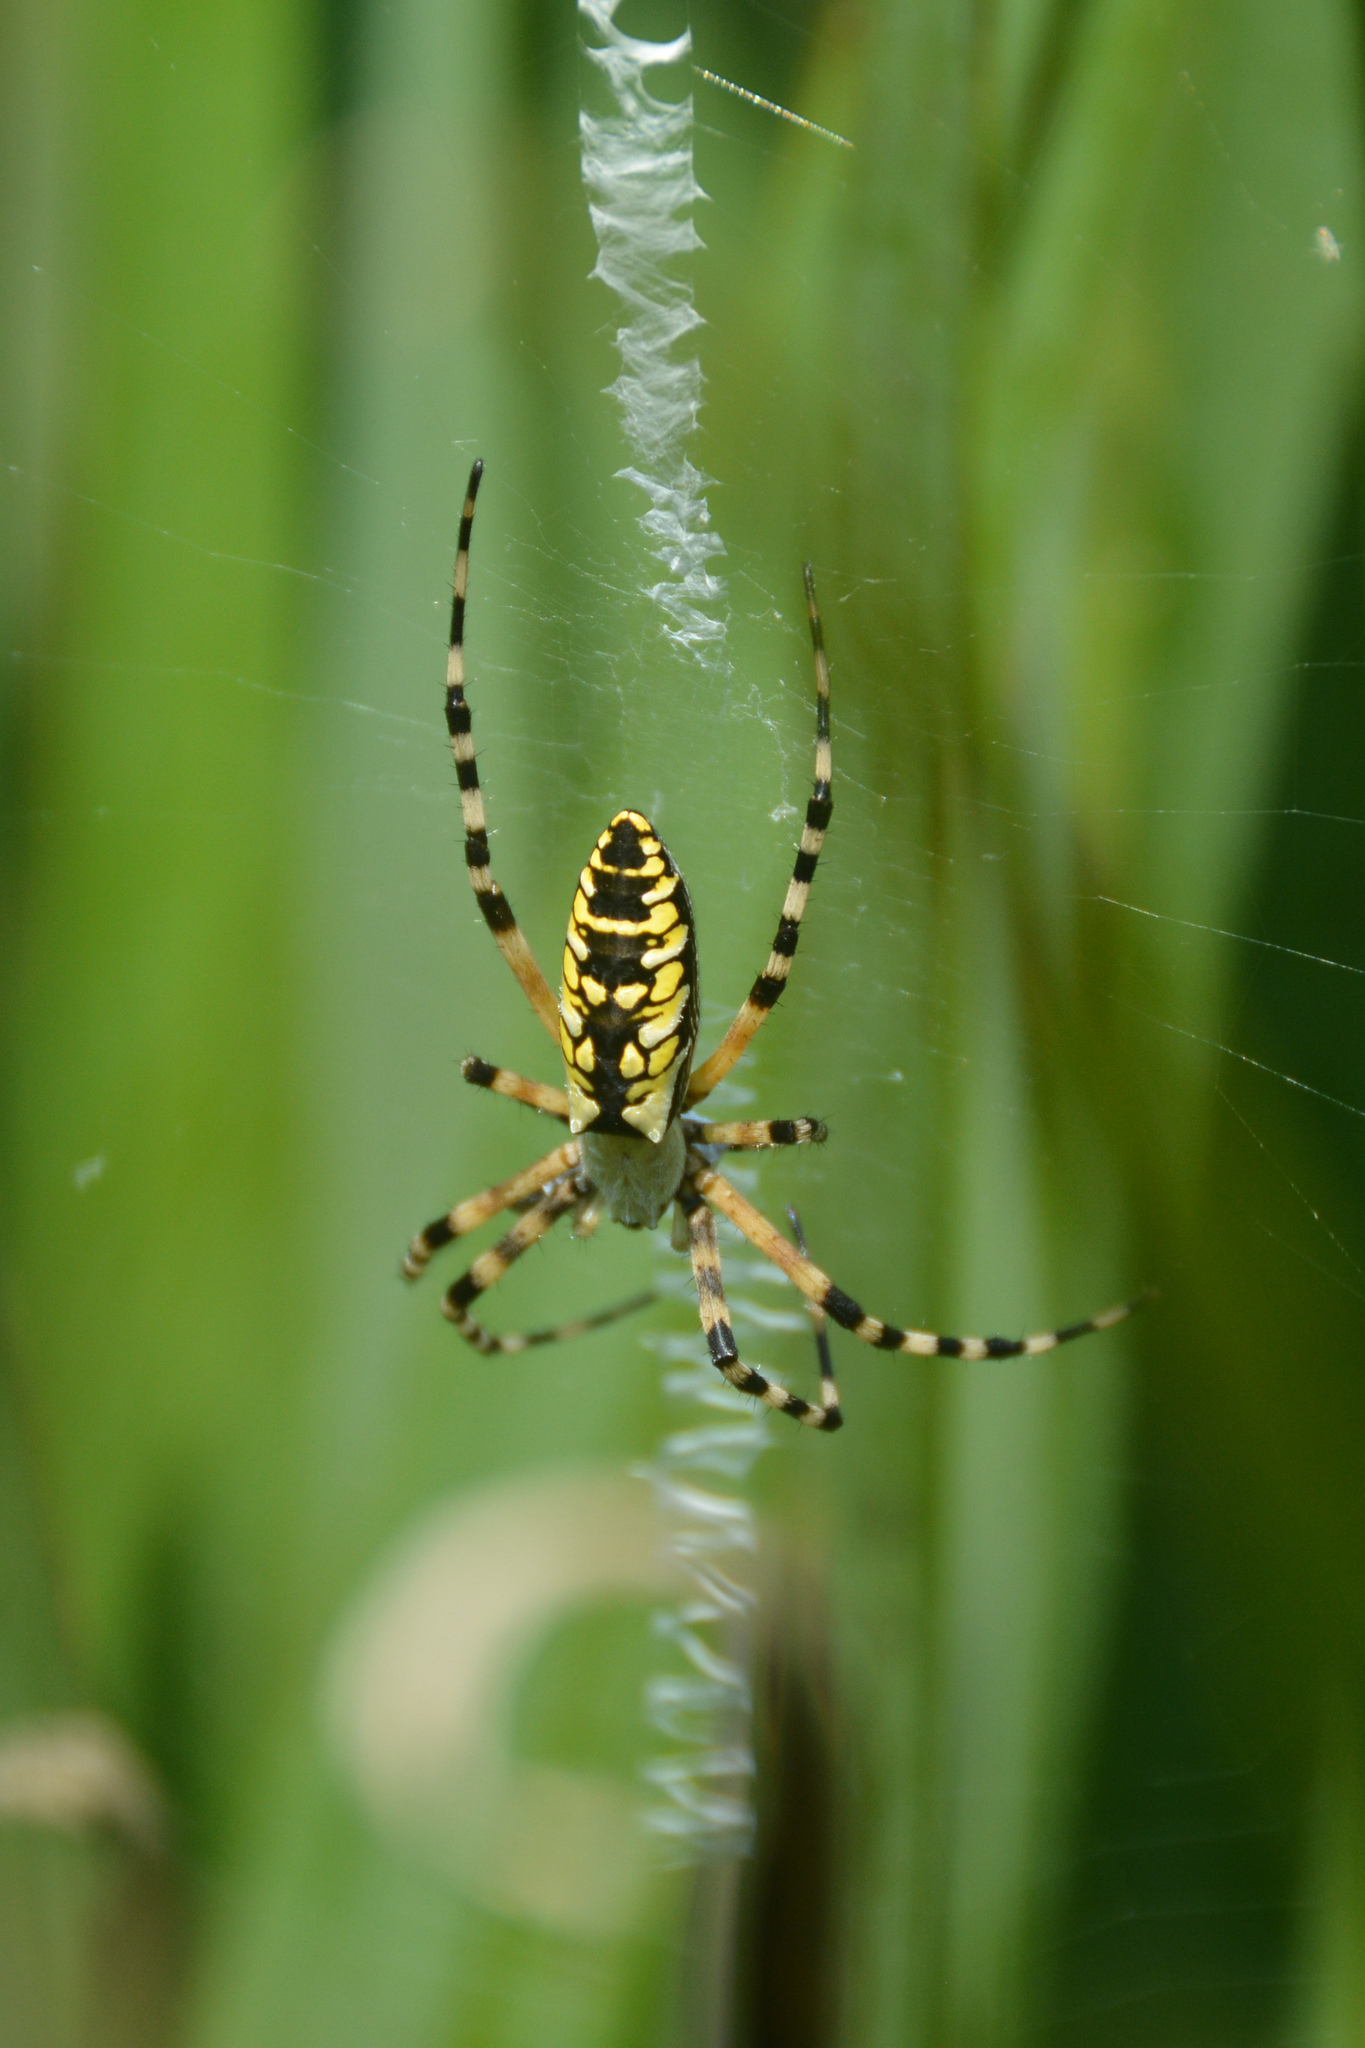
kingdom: Animalia
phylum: Arthropoda
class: Arachnida
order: Araneae
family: Araneidae
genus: Argiope
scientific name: Argiope aurantia
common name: Orb weavers
